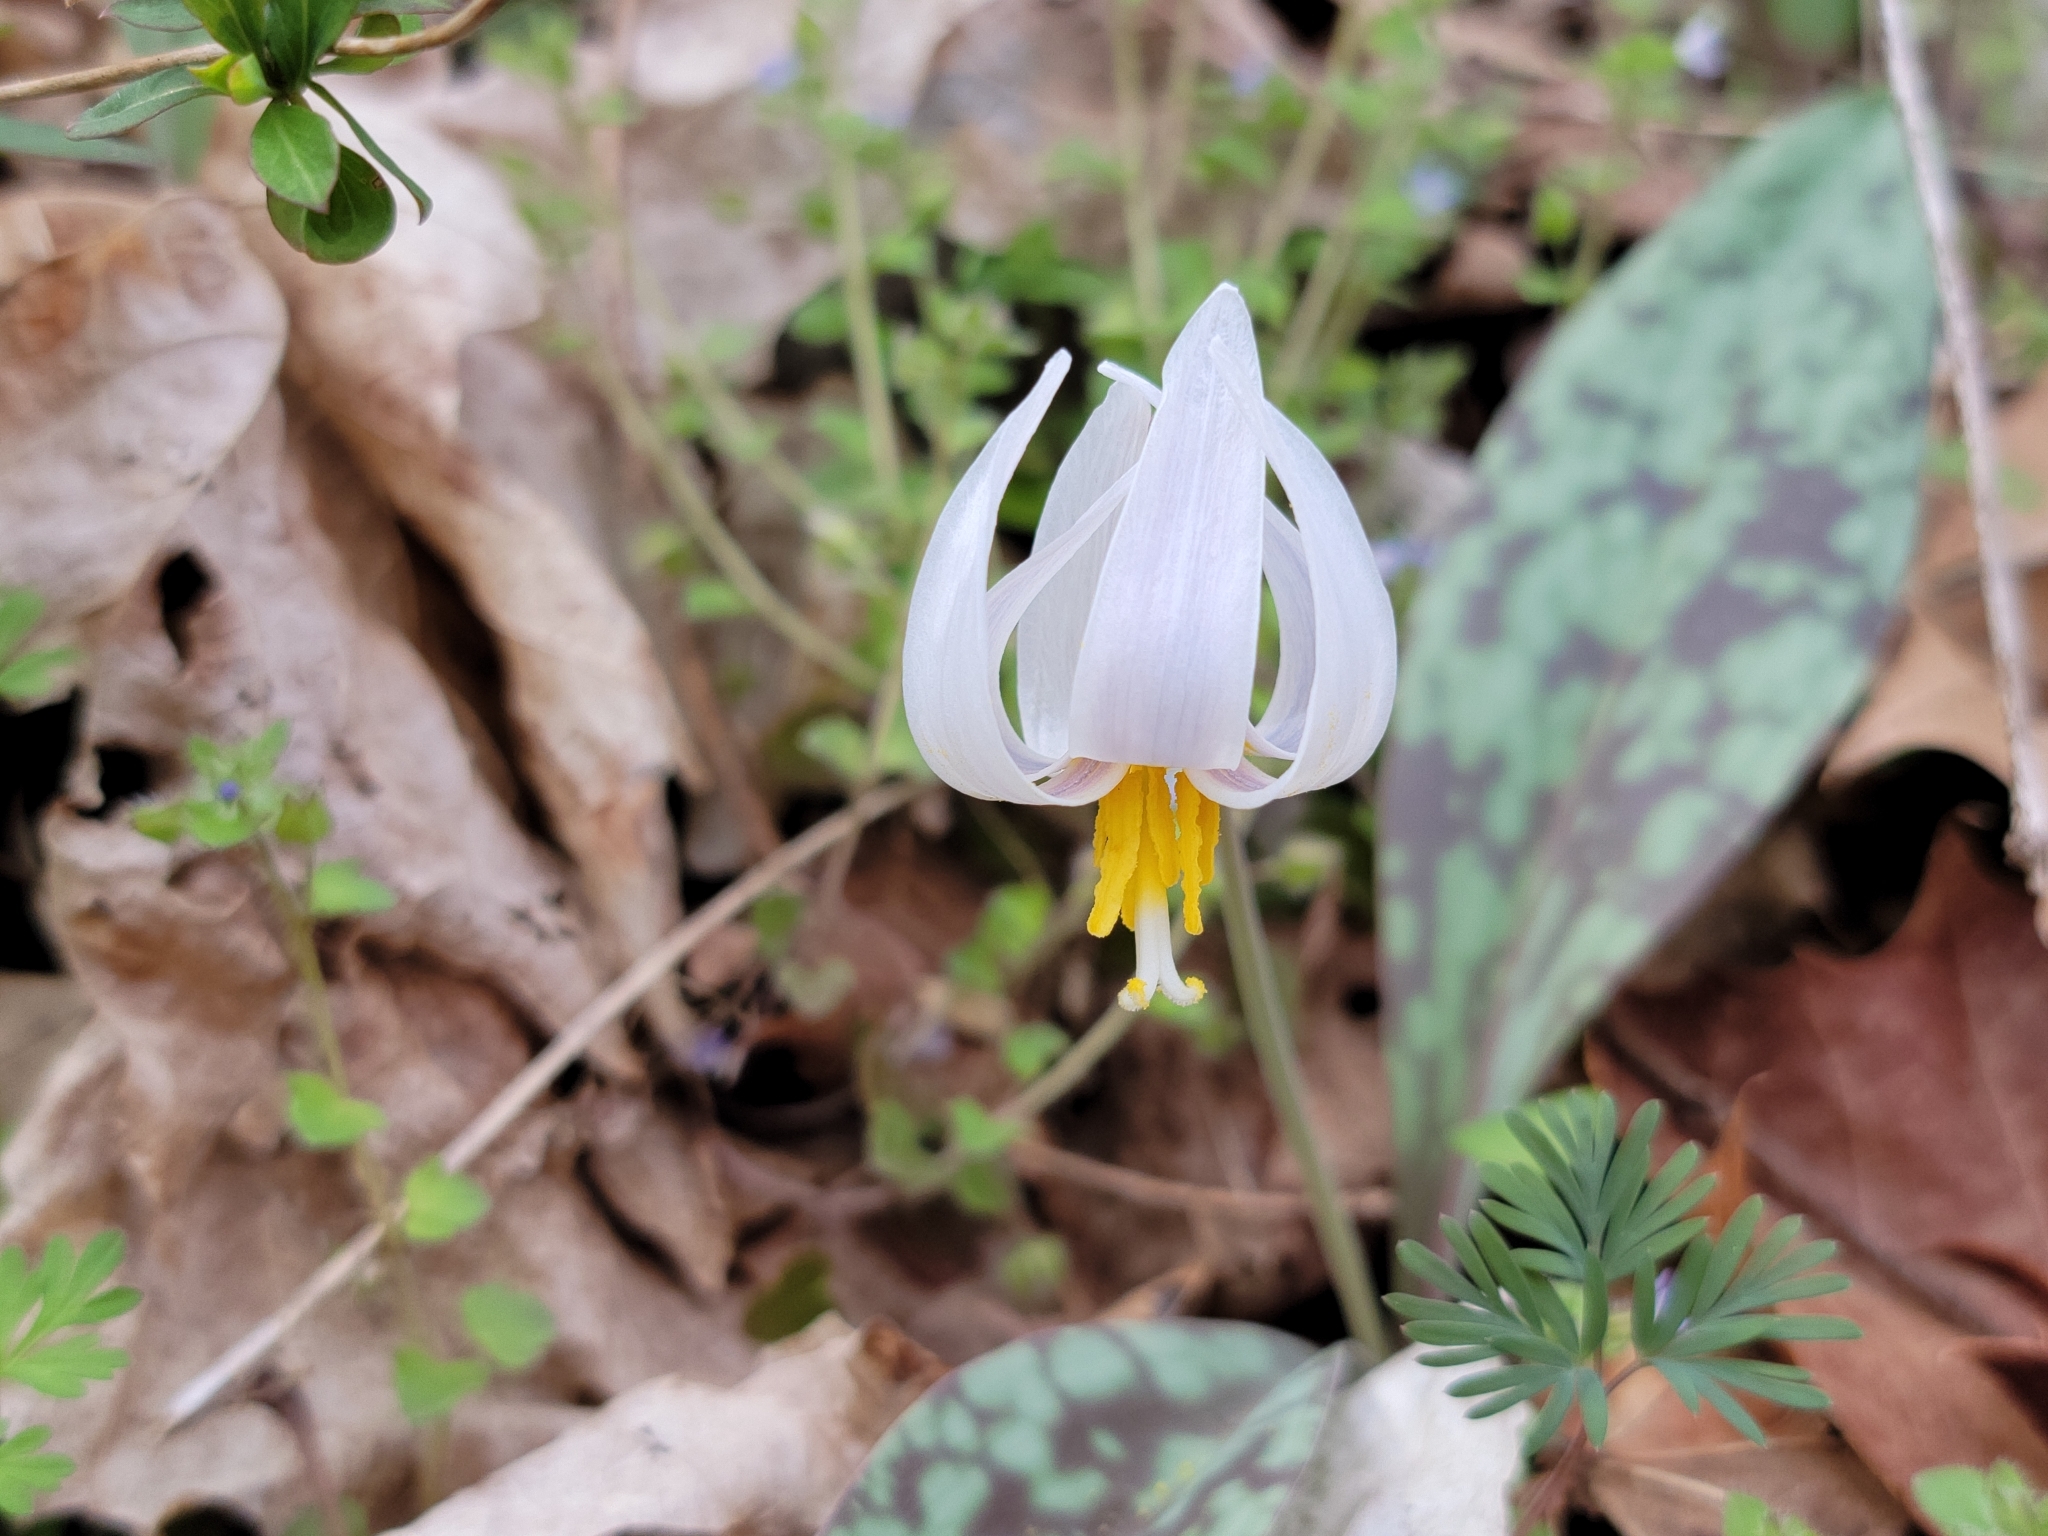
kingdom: Plantae
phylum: Tracheophyta
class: Liliopsida
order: Liliales
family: Liliaceae
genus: Erythronium
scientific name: Erythronium albidum
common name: White trout-lily
